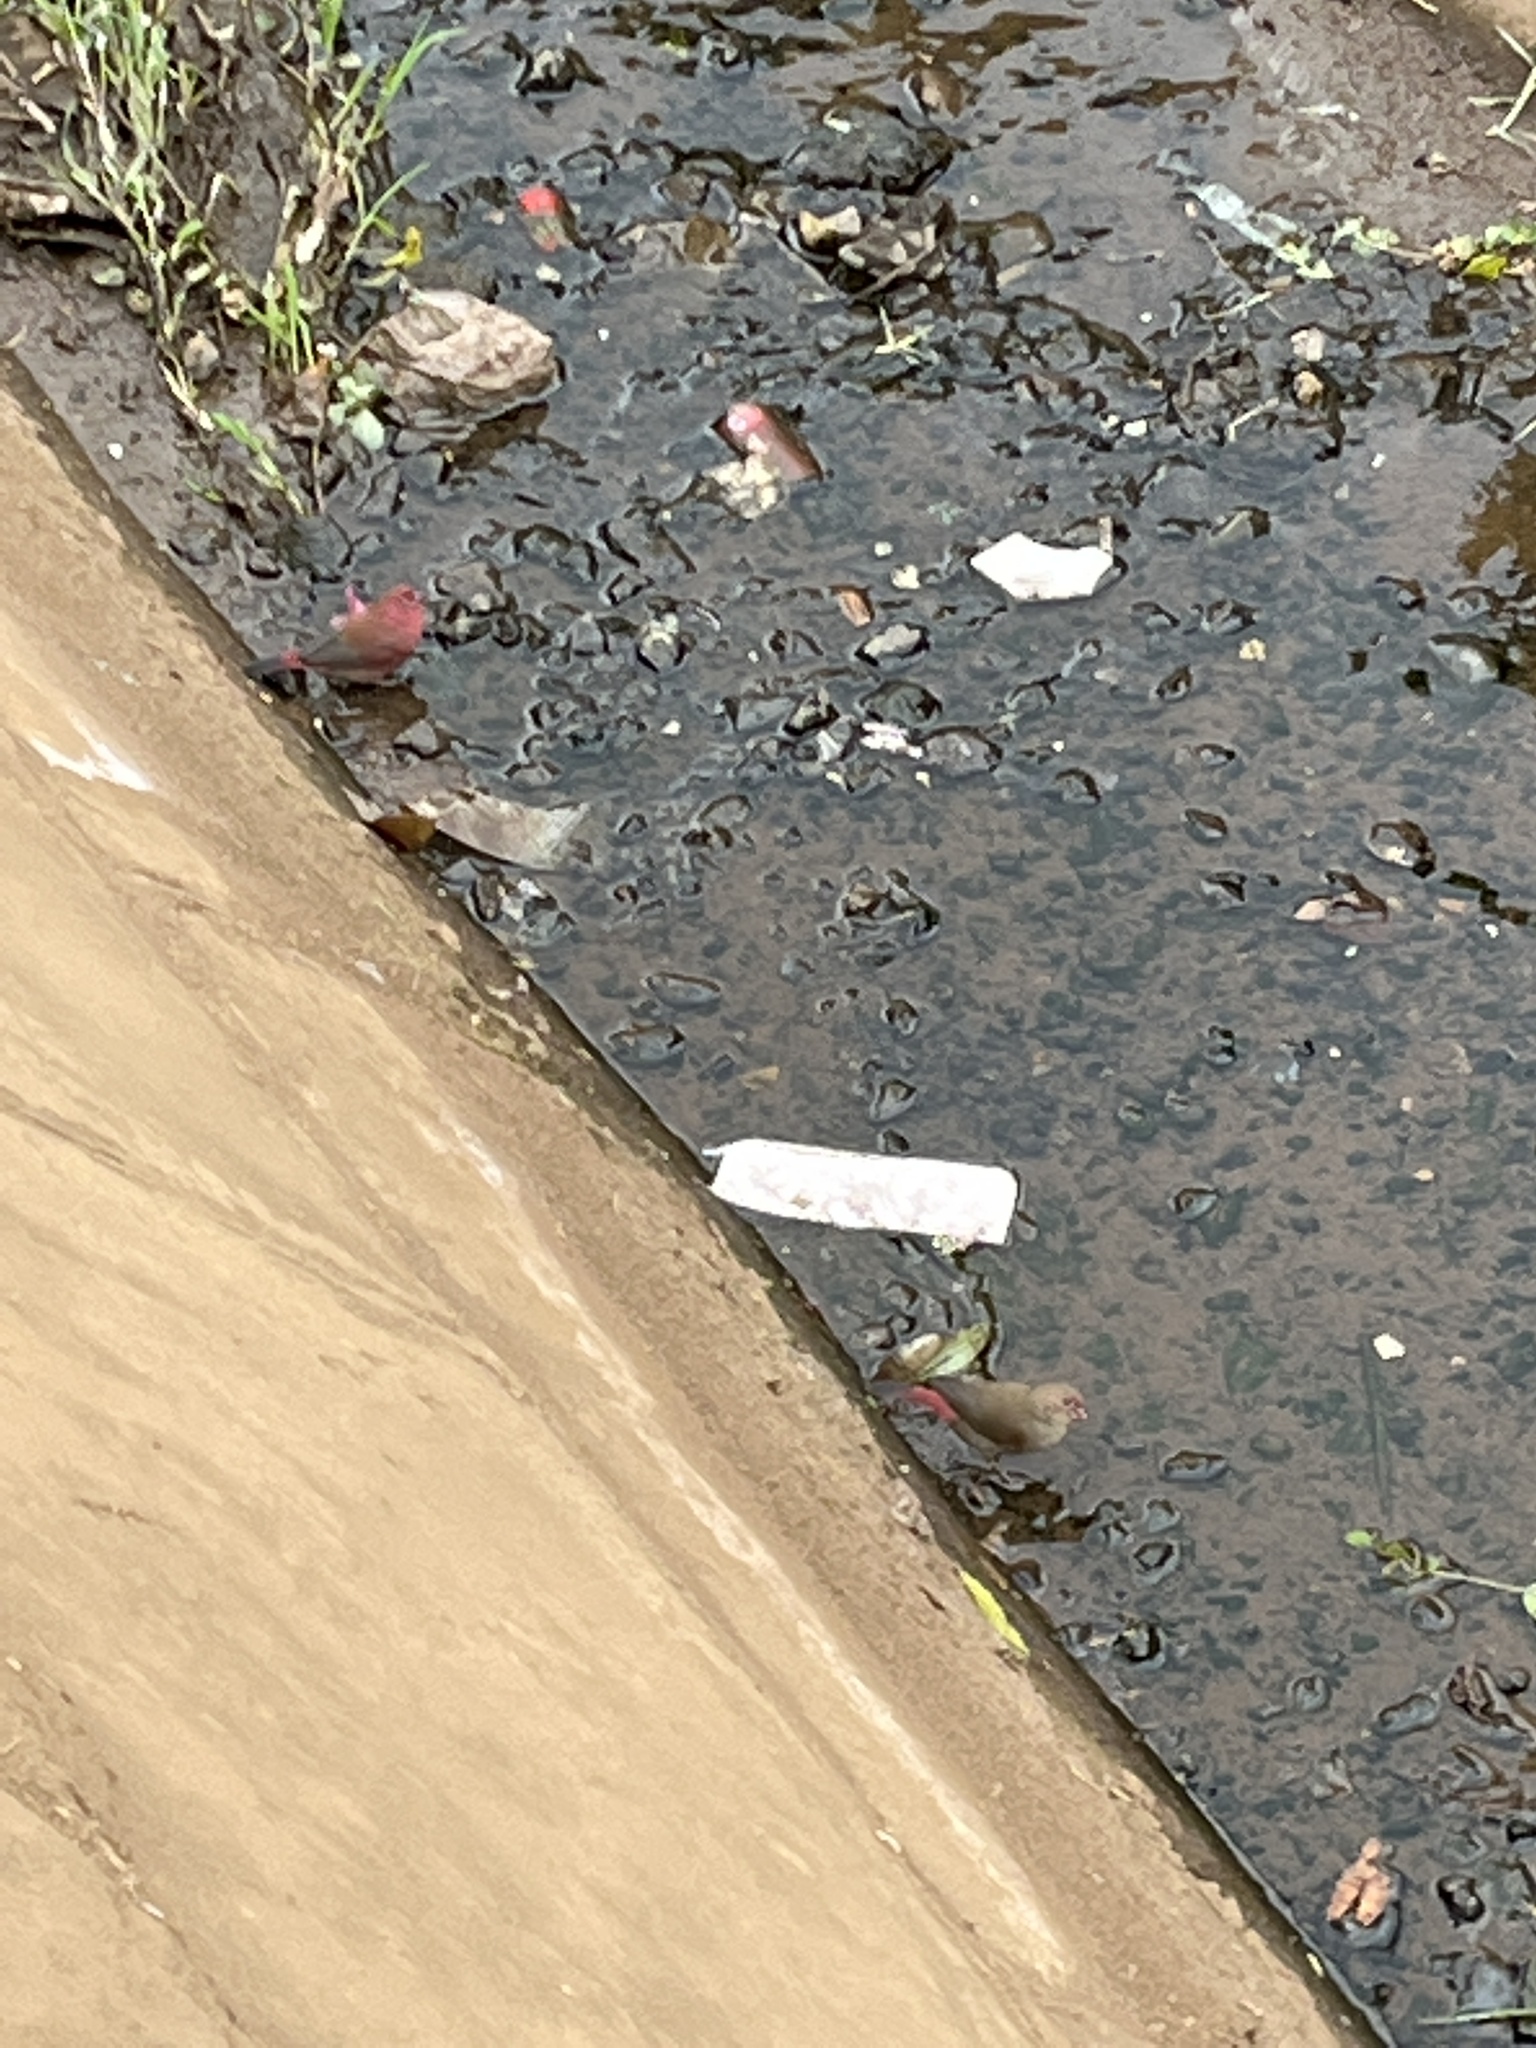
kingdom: Animalia
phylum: Chordata
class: Aves
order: Passeriformes
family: Estrildidae
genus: Lagonosticta
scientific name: Lagonosticta senegala
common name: Red-billed firefinch
